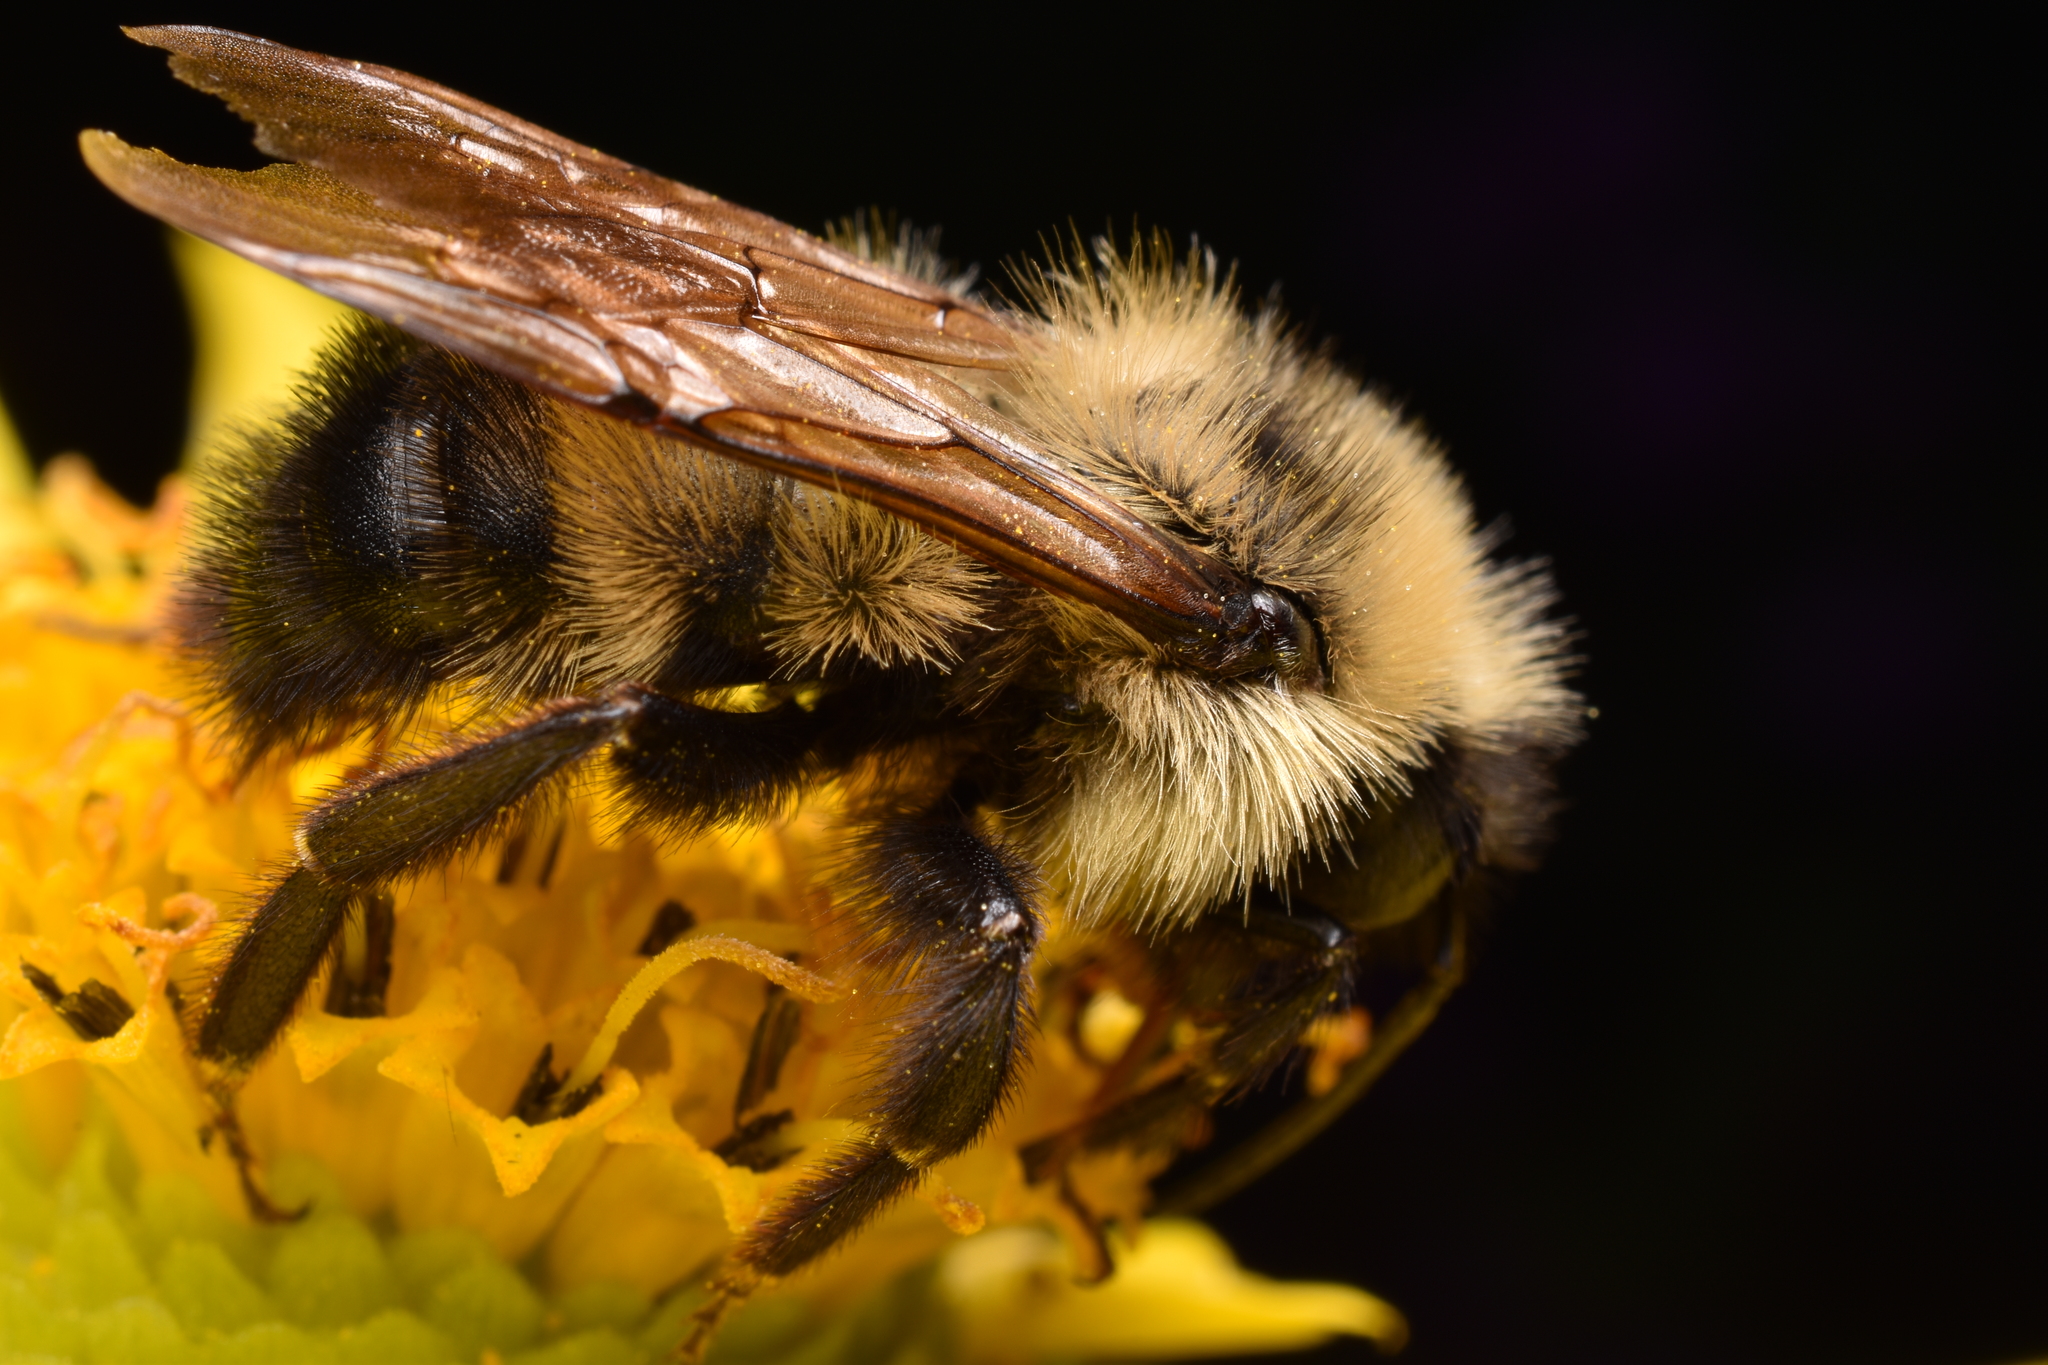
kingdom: Animalia
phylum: Arthropoda
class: Insecta
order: Hymenoptera
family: Apidae
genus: Bombus
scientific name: Bombus citrinus
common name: Lemon cuckoo bumble bee
